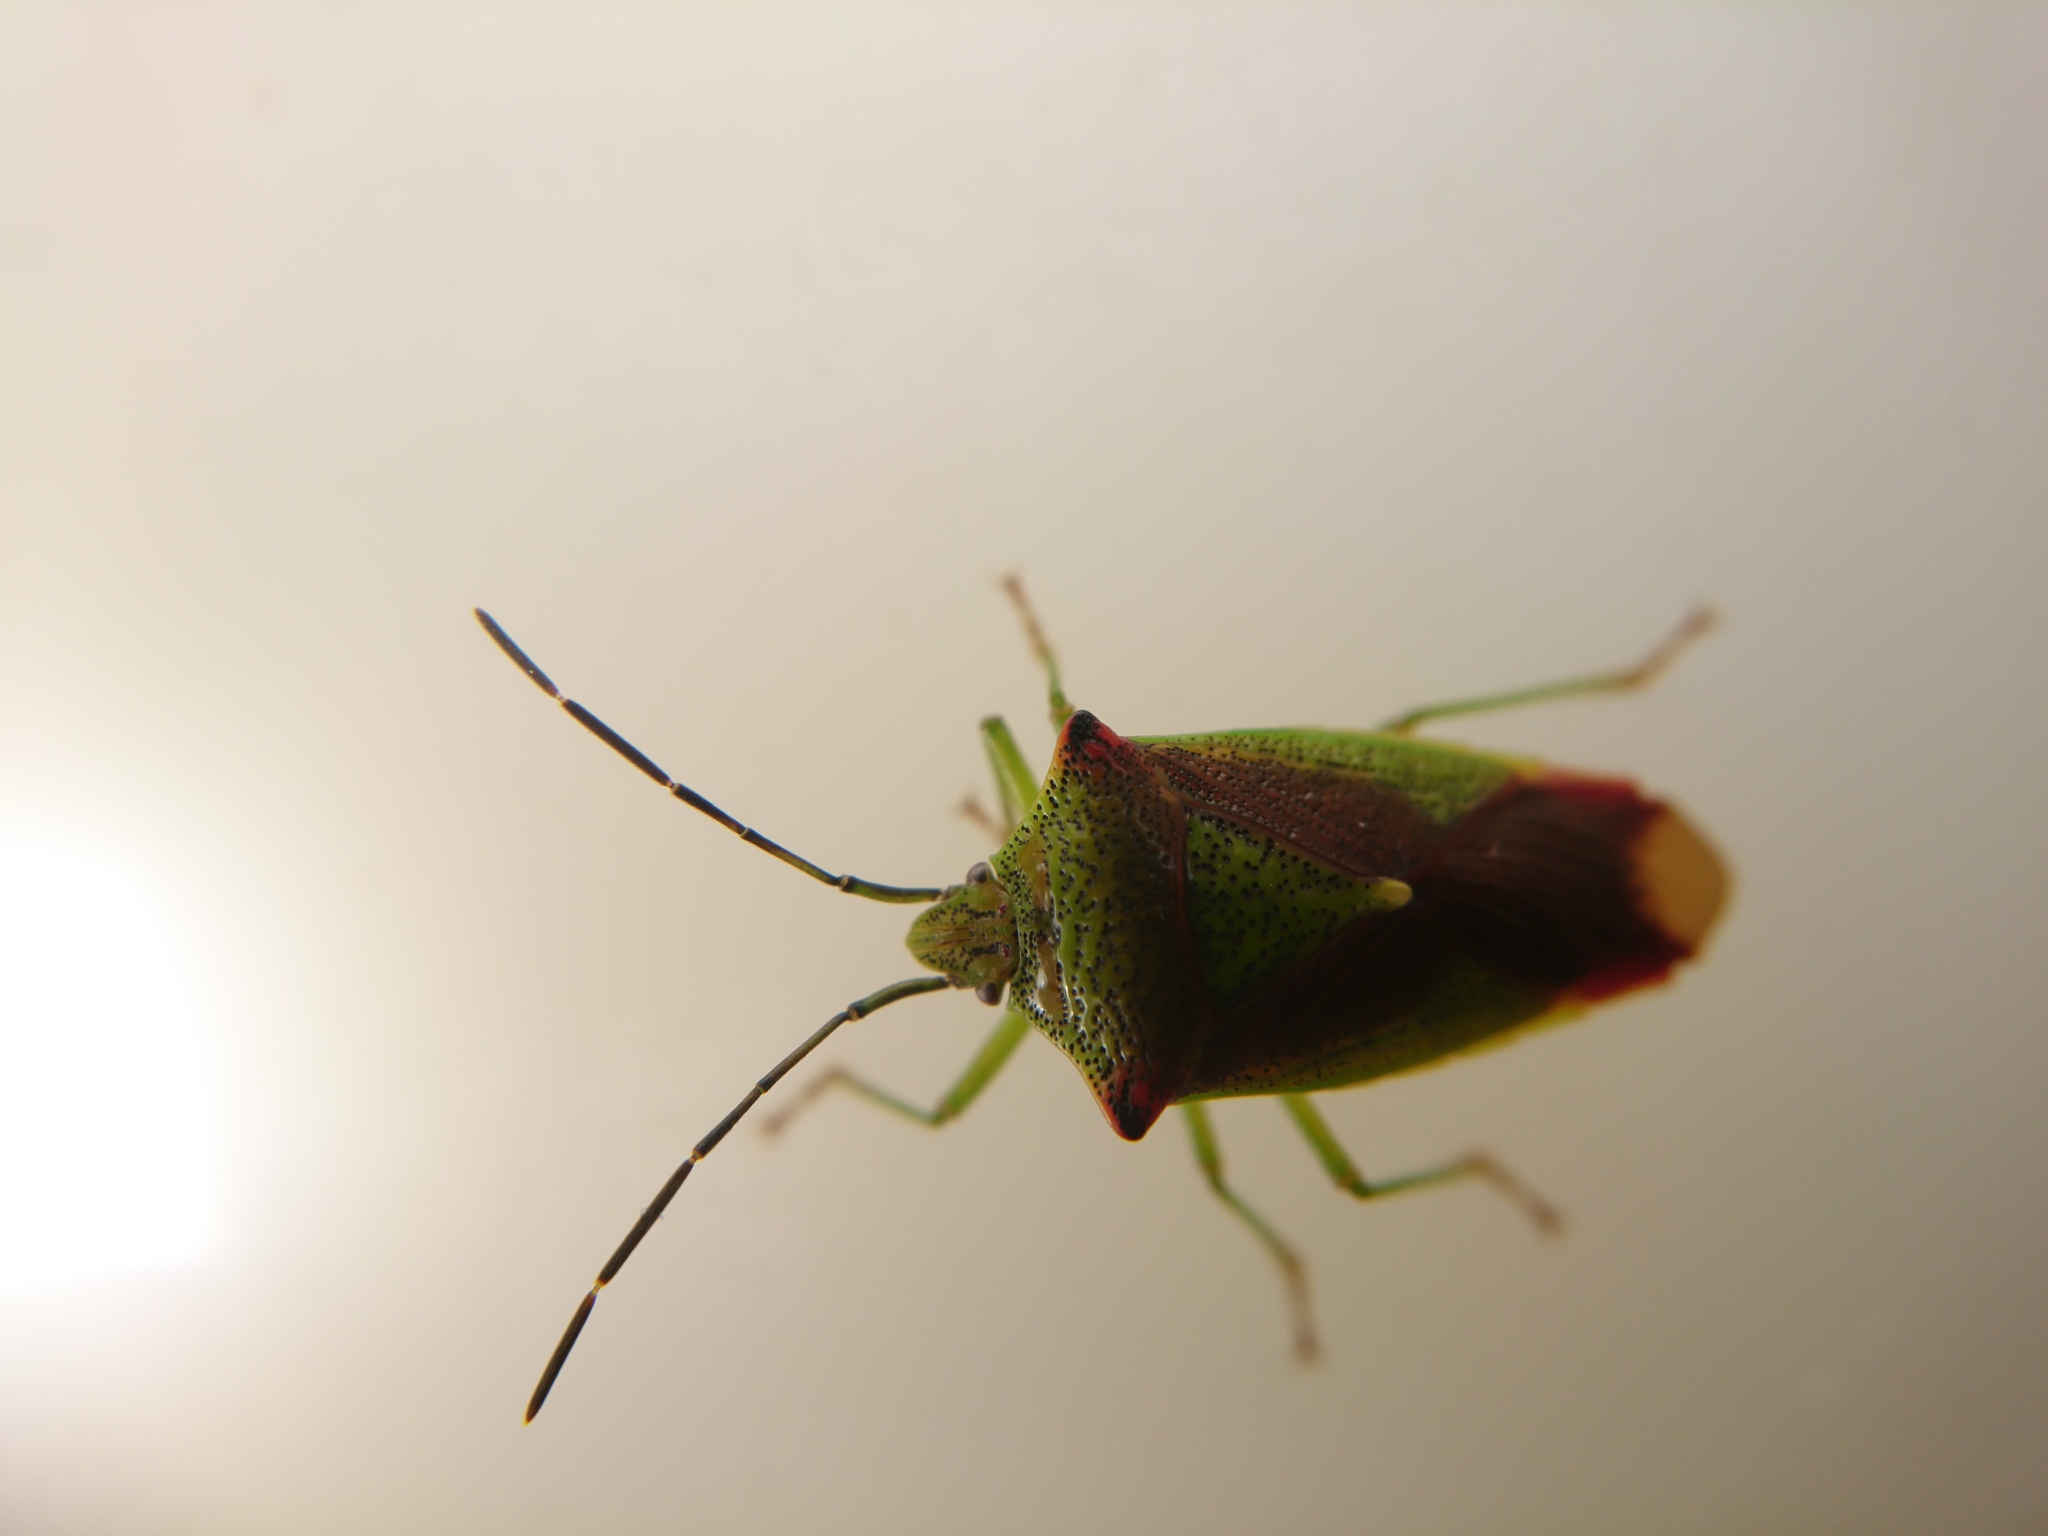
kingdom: Animalia
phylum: Arthropoda
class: Insecta
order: Hemiptera
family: Acanthosomatidae
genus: Acanthosoma
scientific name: Acanthosoma haemorrhoidale
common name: Hawthorn shieldbug
